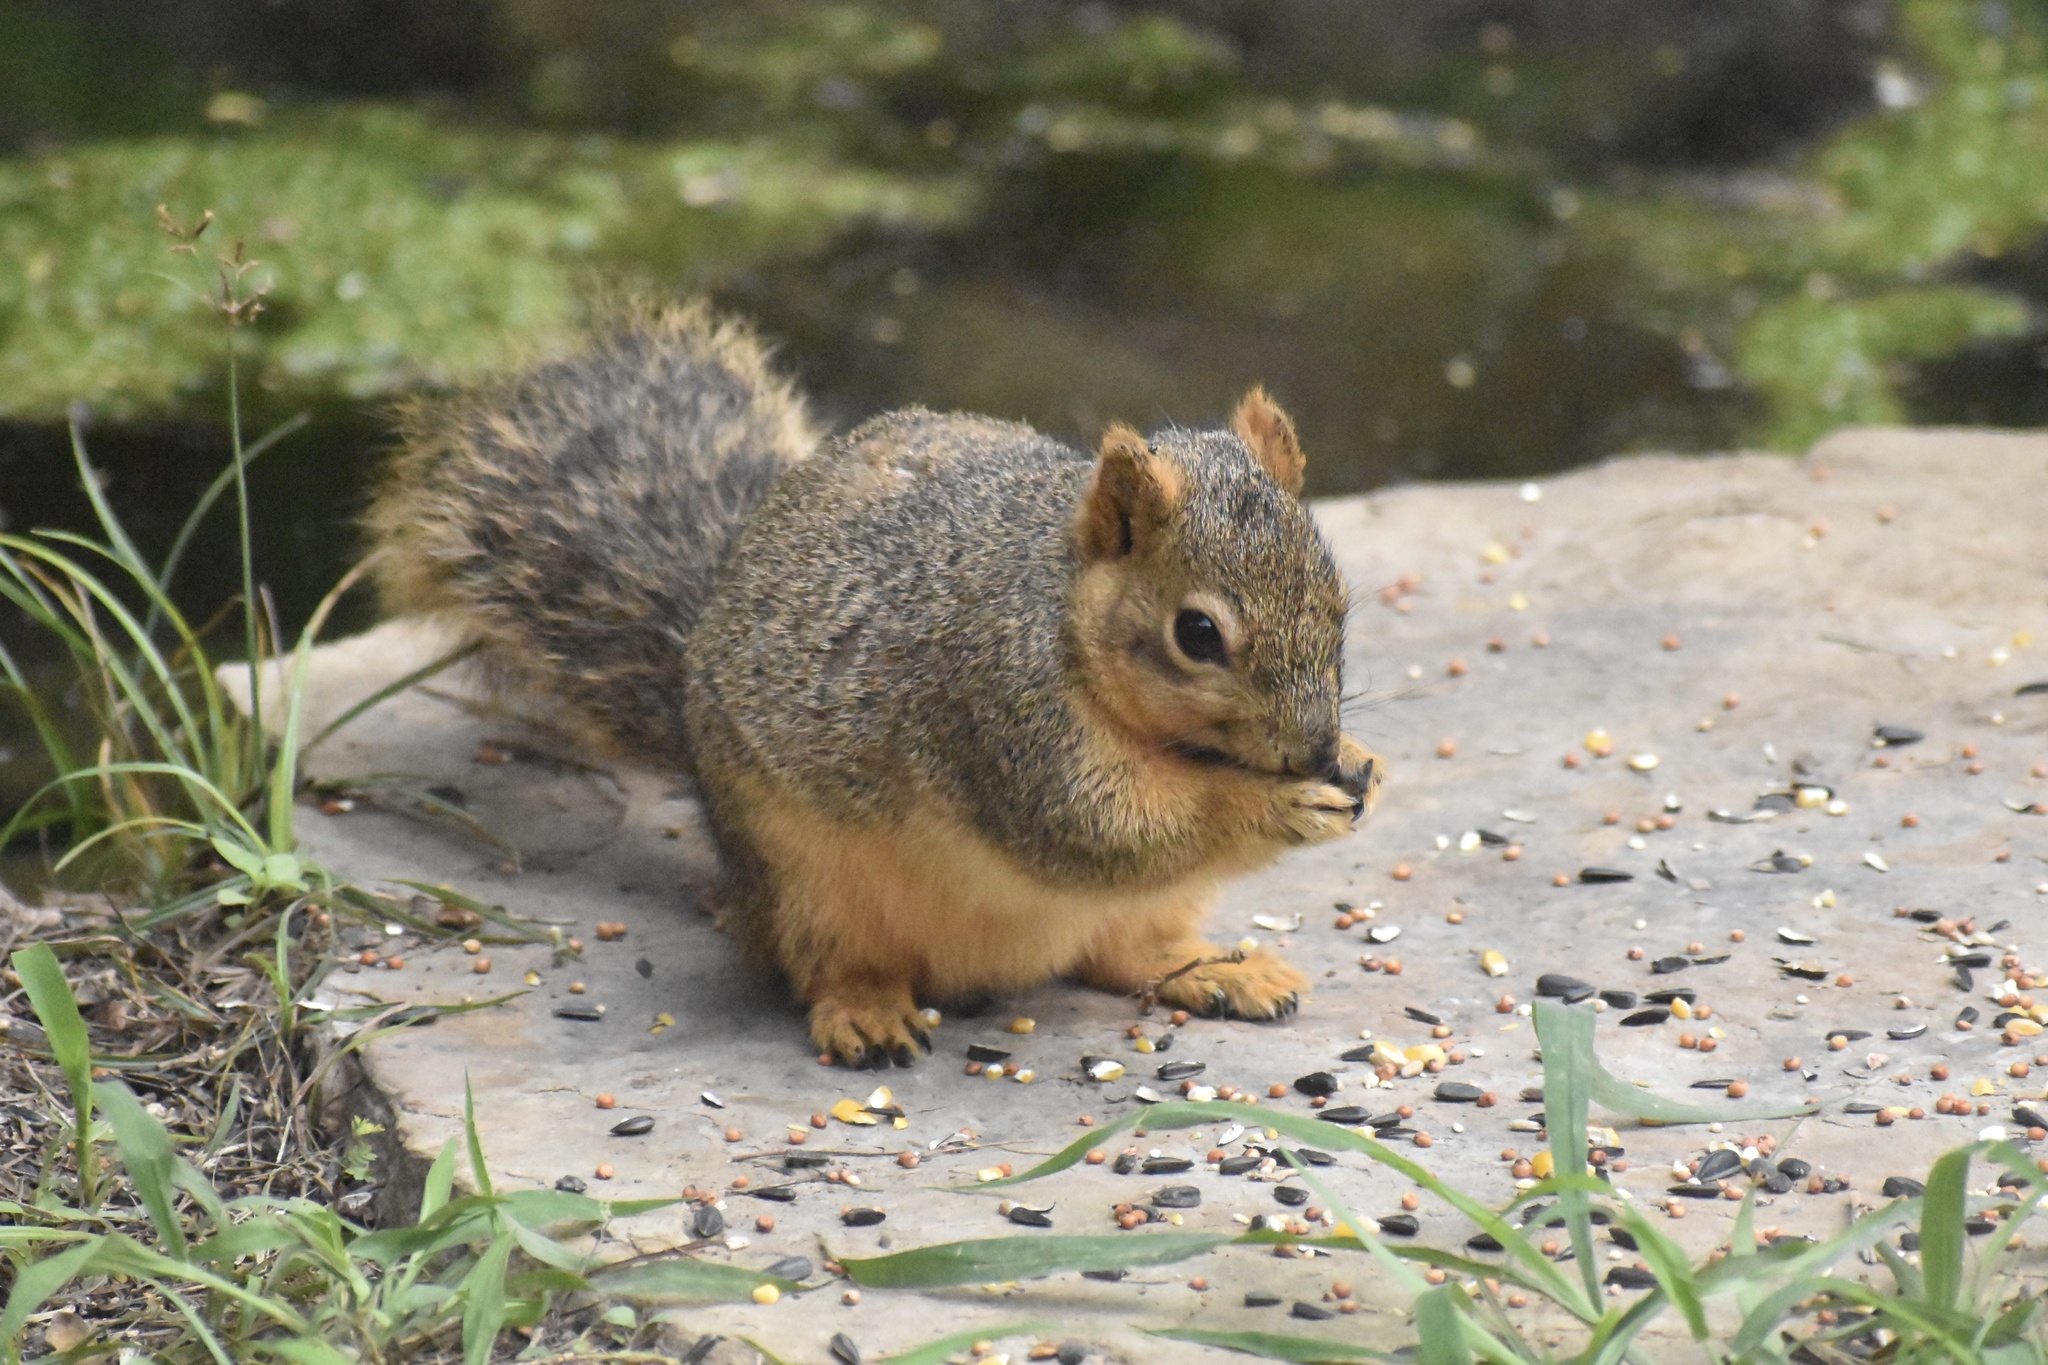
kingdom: Animalia
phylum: Chordata
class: Mammalia
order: Rodentia
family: Sciuridae
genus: Sciurus
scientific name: Sciurus niger
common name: Fox squirrel
